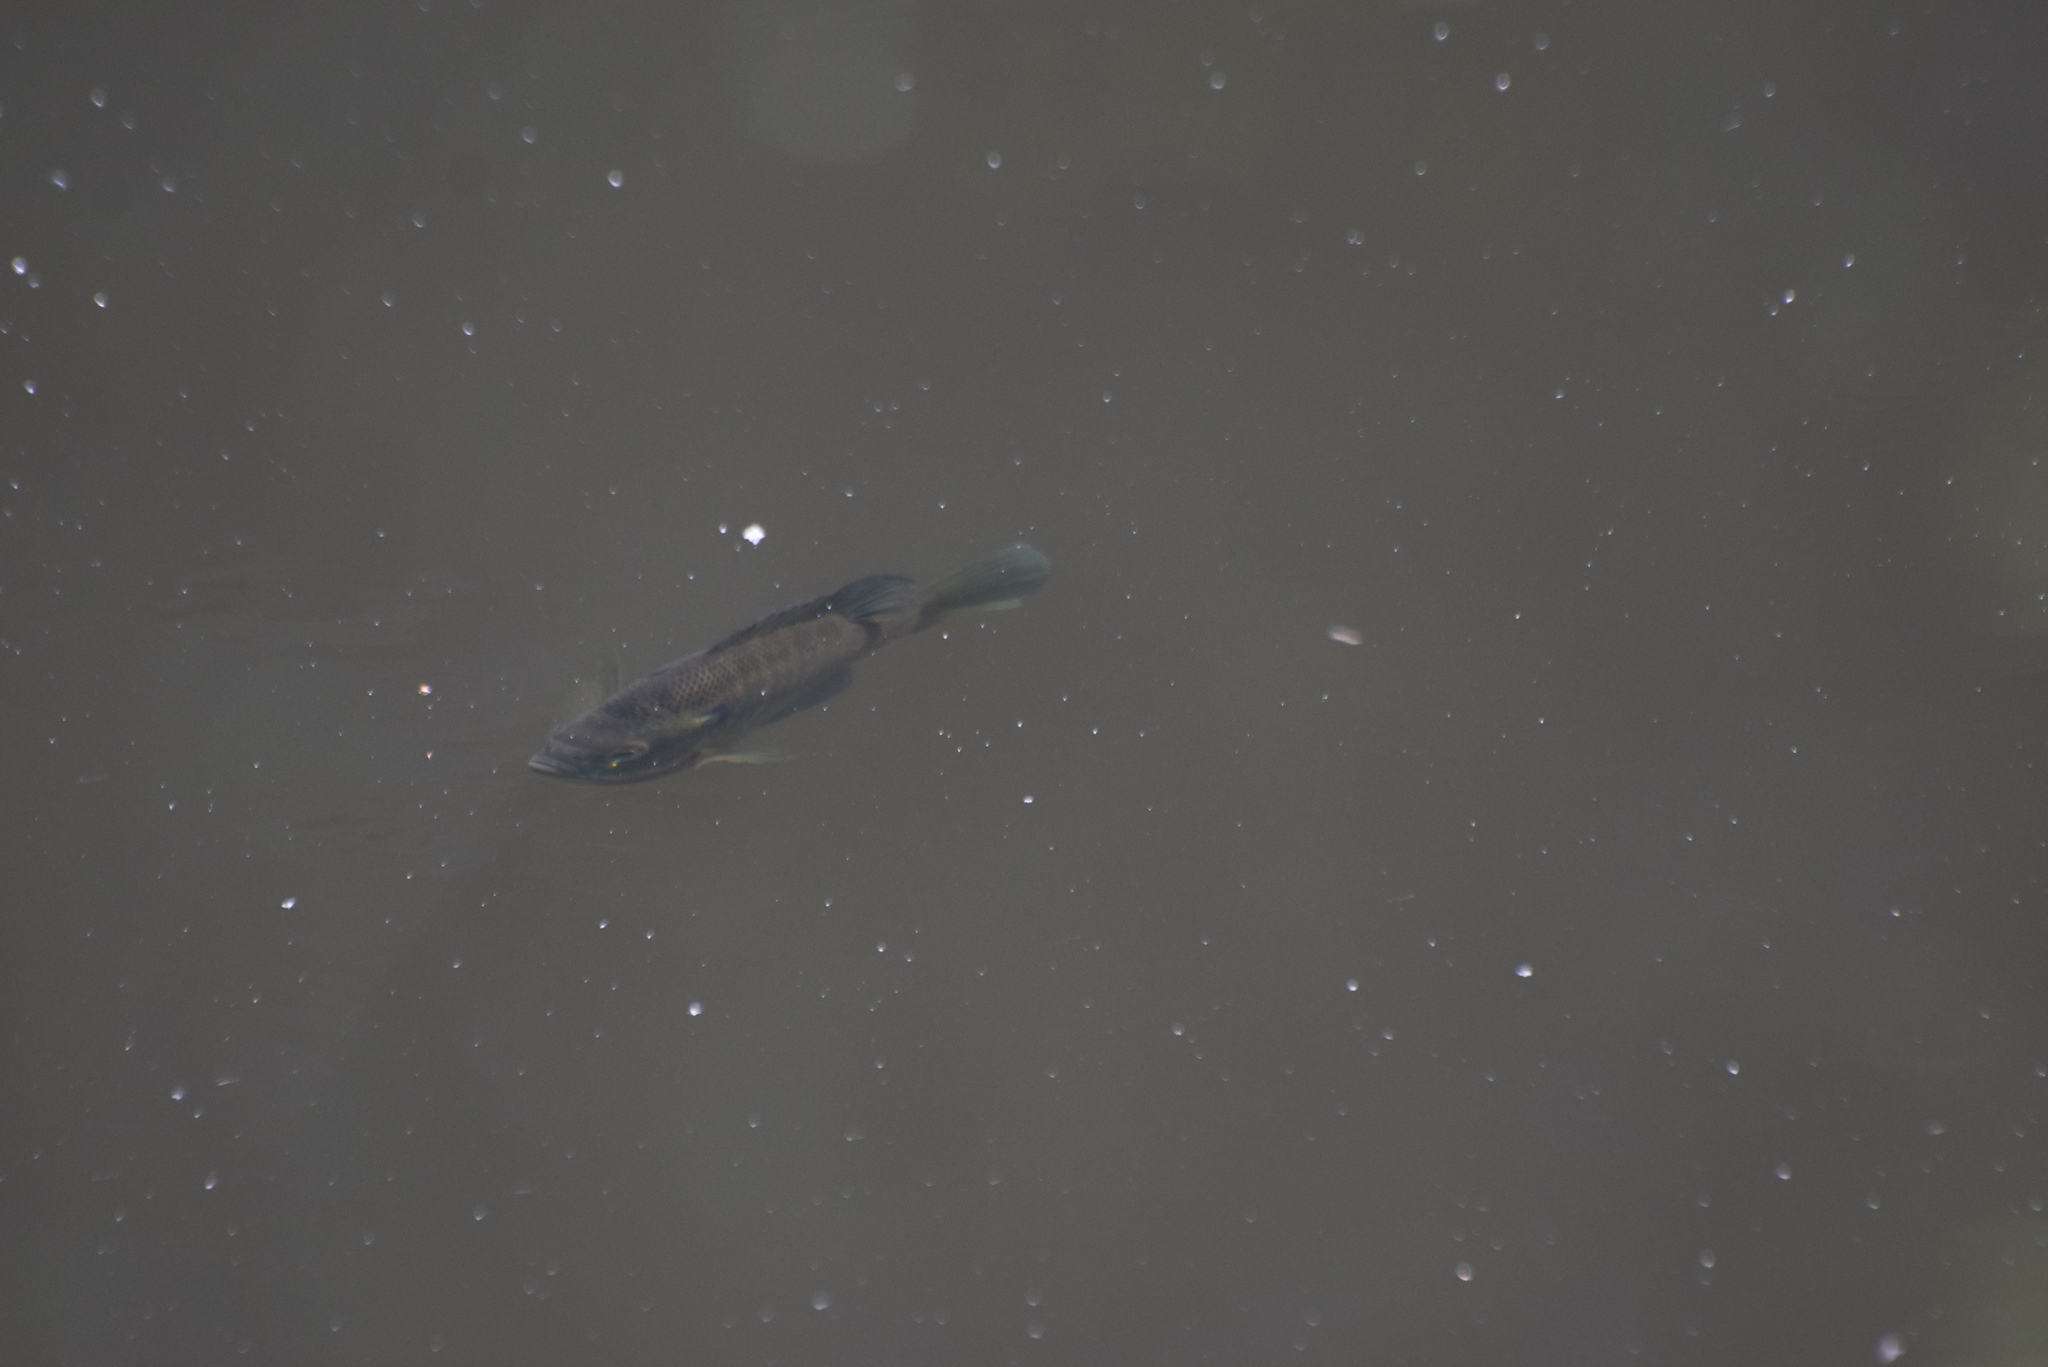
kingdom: Animalia
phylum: Chordata
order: Perciformes
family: Centrarchidae
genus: Lepomis
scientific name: Lepomis macrochirus
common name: Bluegill
